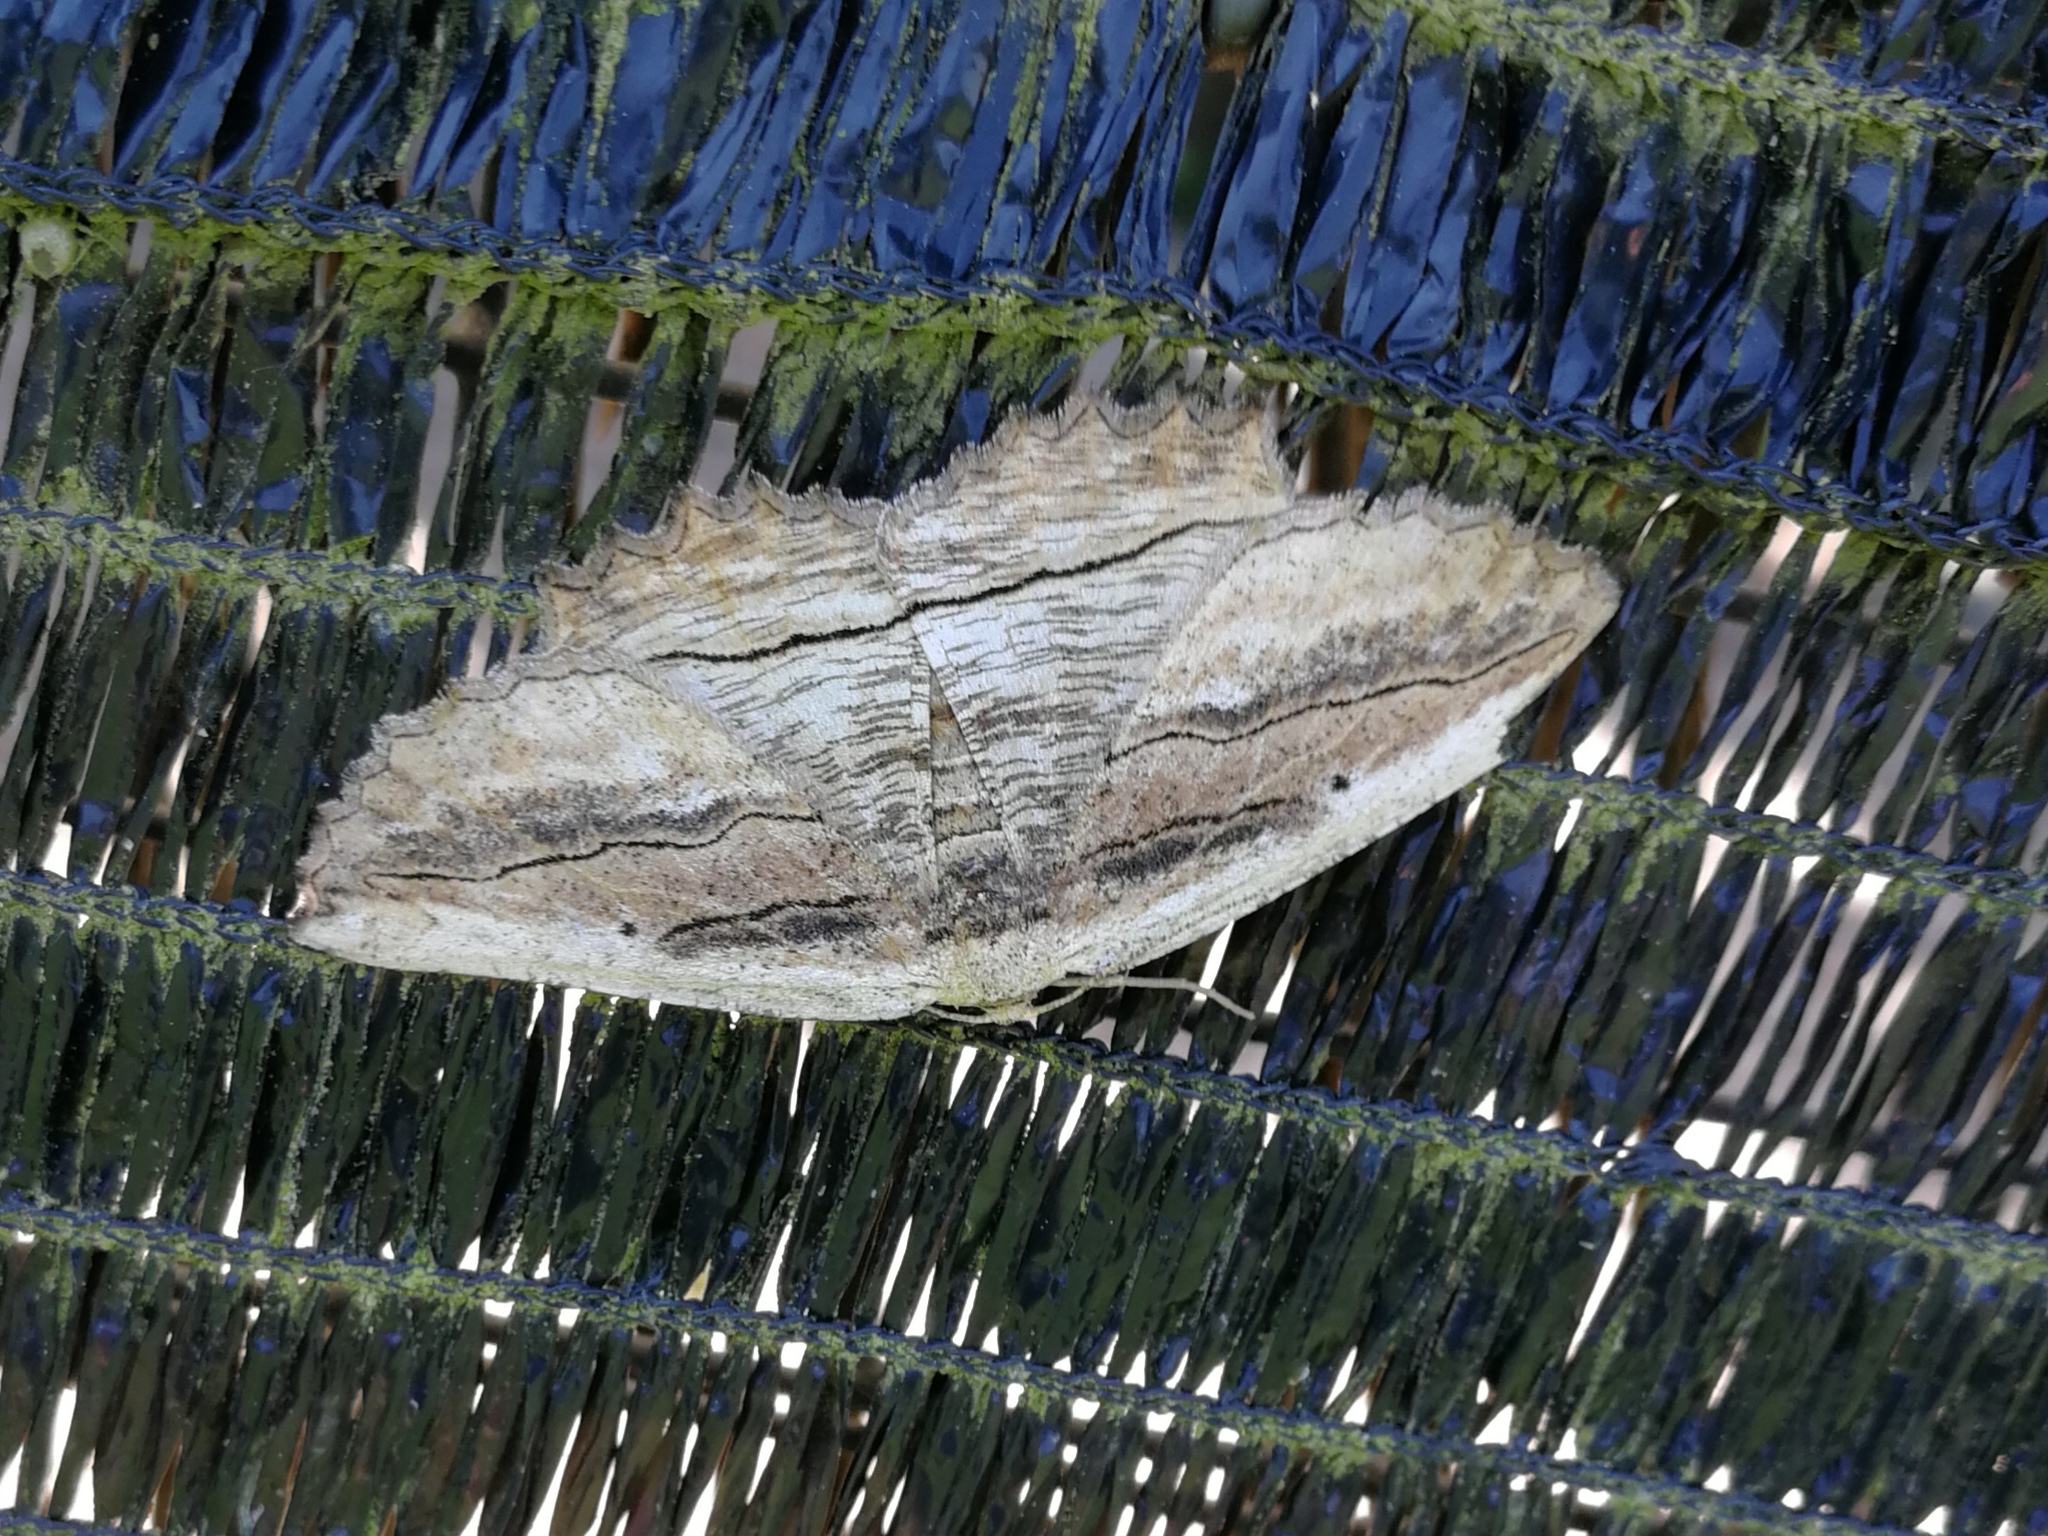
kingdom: Animalia
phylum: Arthropoda
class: Insecta
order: Lepidoptera
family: Geometridae
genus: Menophra
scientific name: Menophra nycthemeraria
